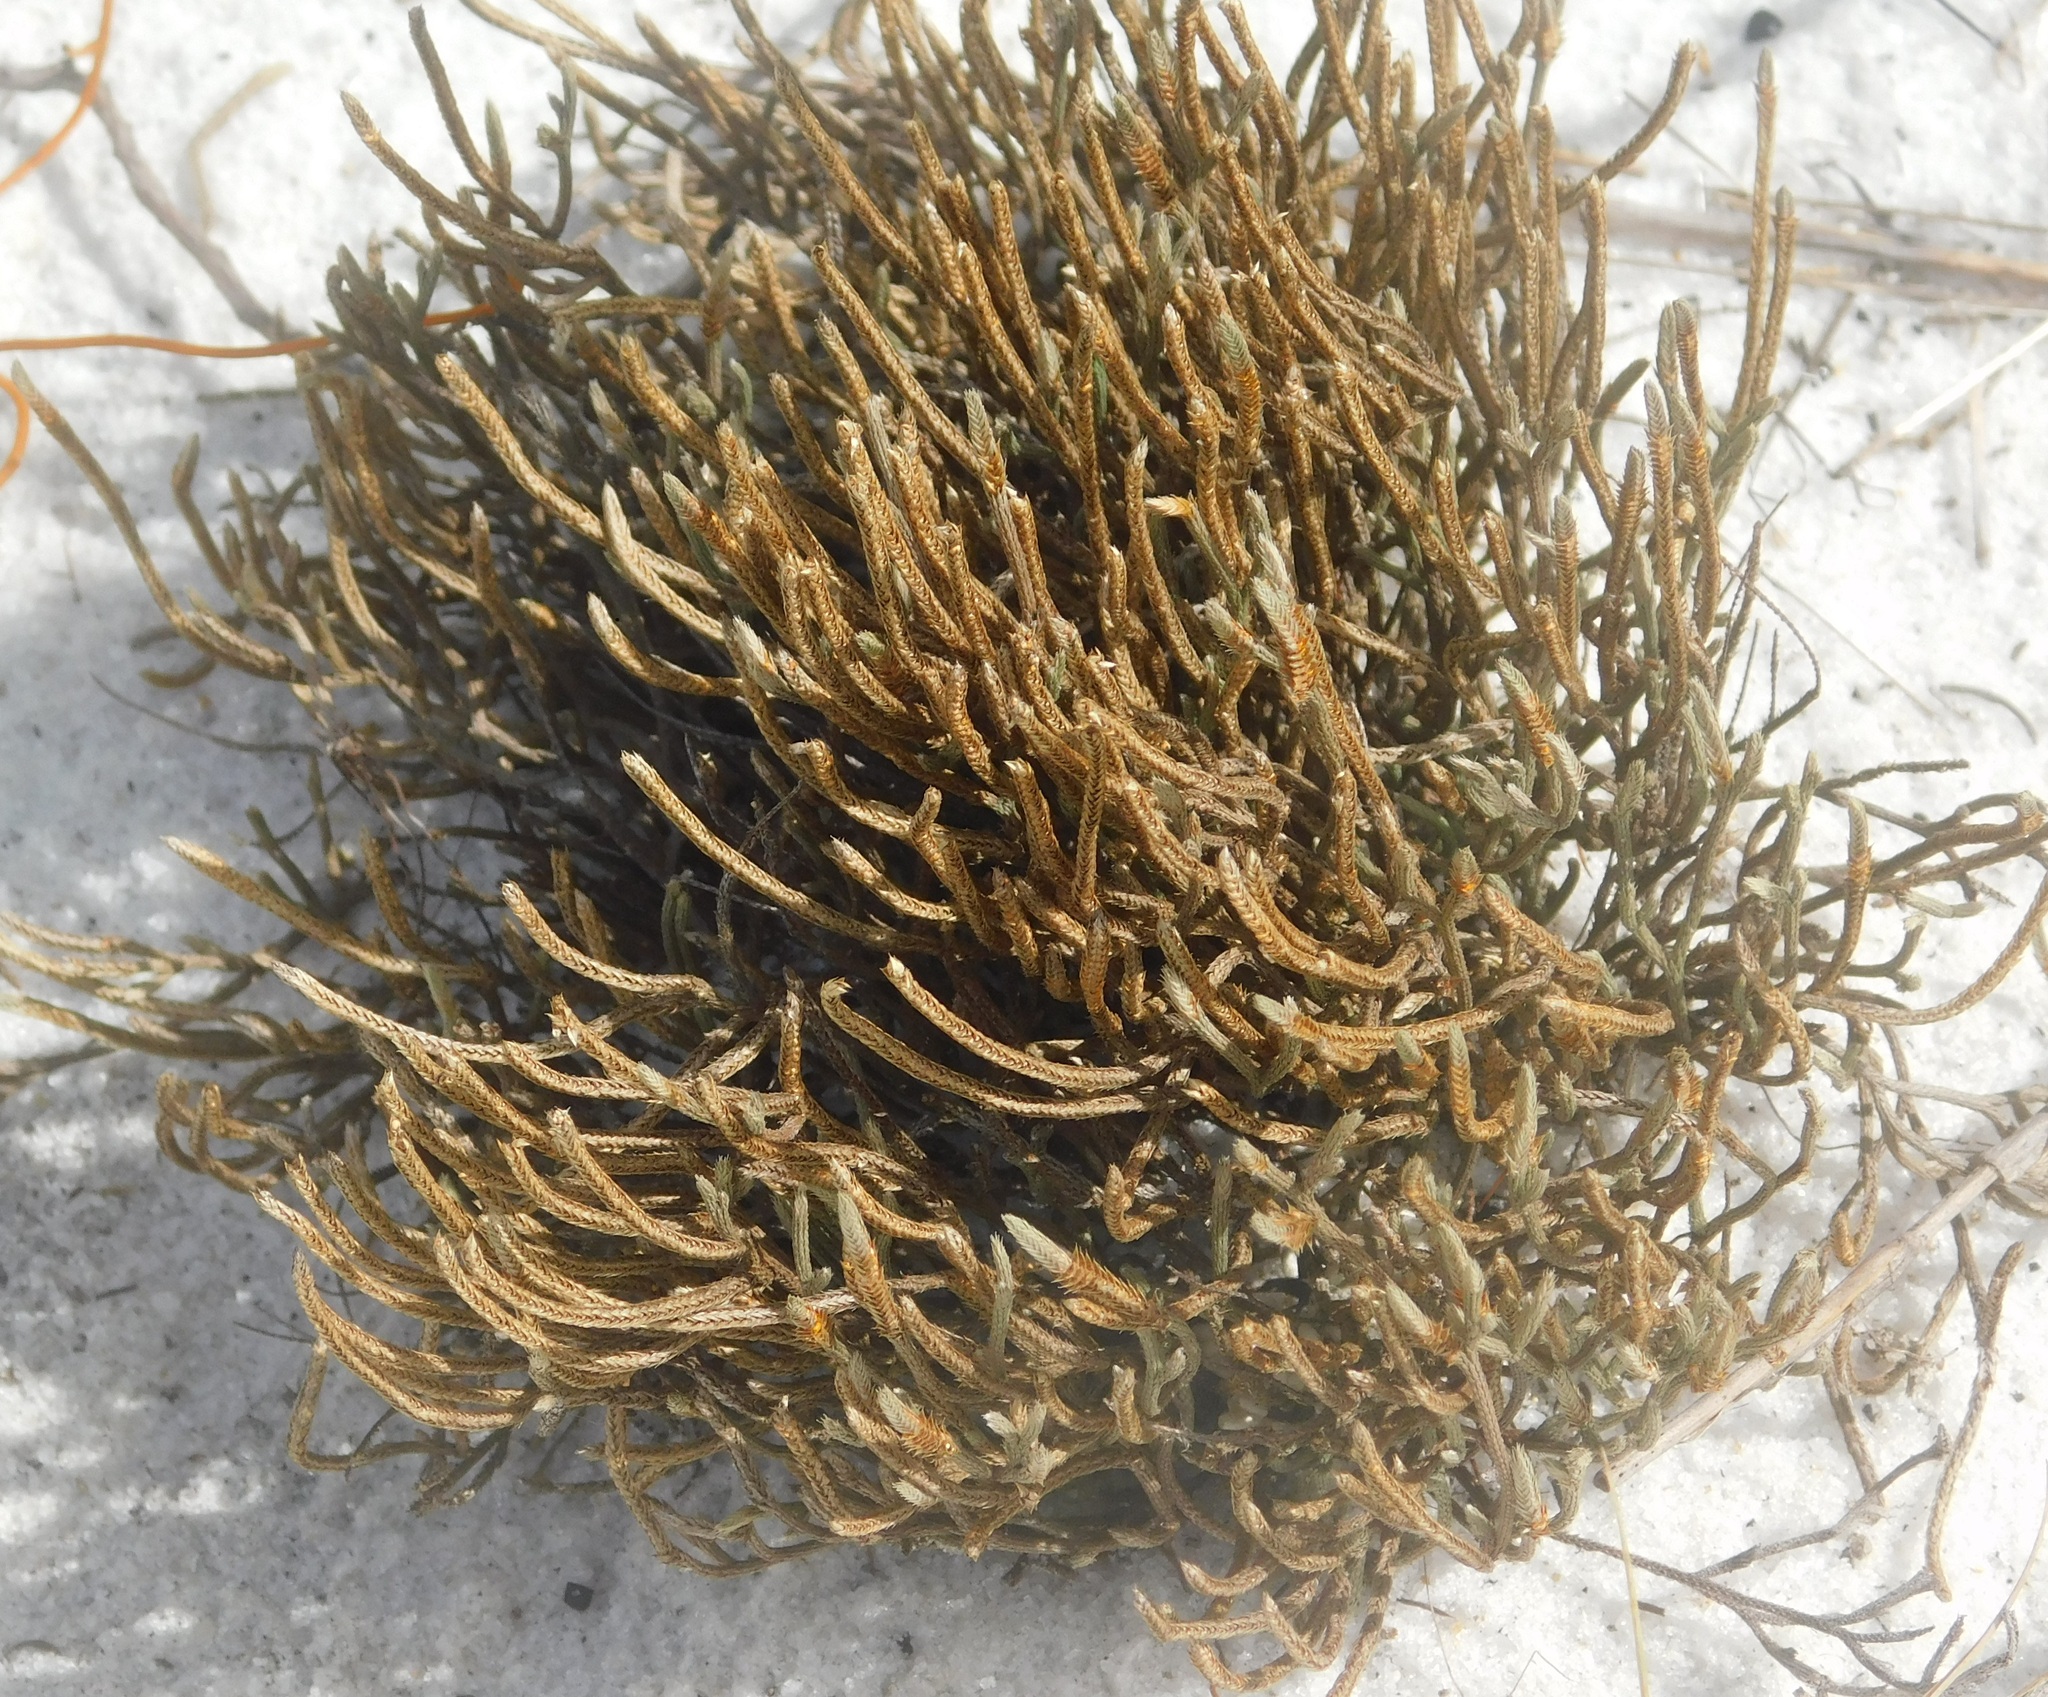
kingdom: Plantae
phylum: Tracheophyta
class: Lycopodiopsida
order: Selaginellales
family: Selaginellaceae
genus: Selaginella
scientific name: Selaginella arenicola
